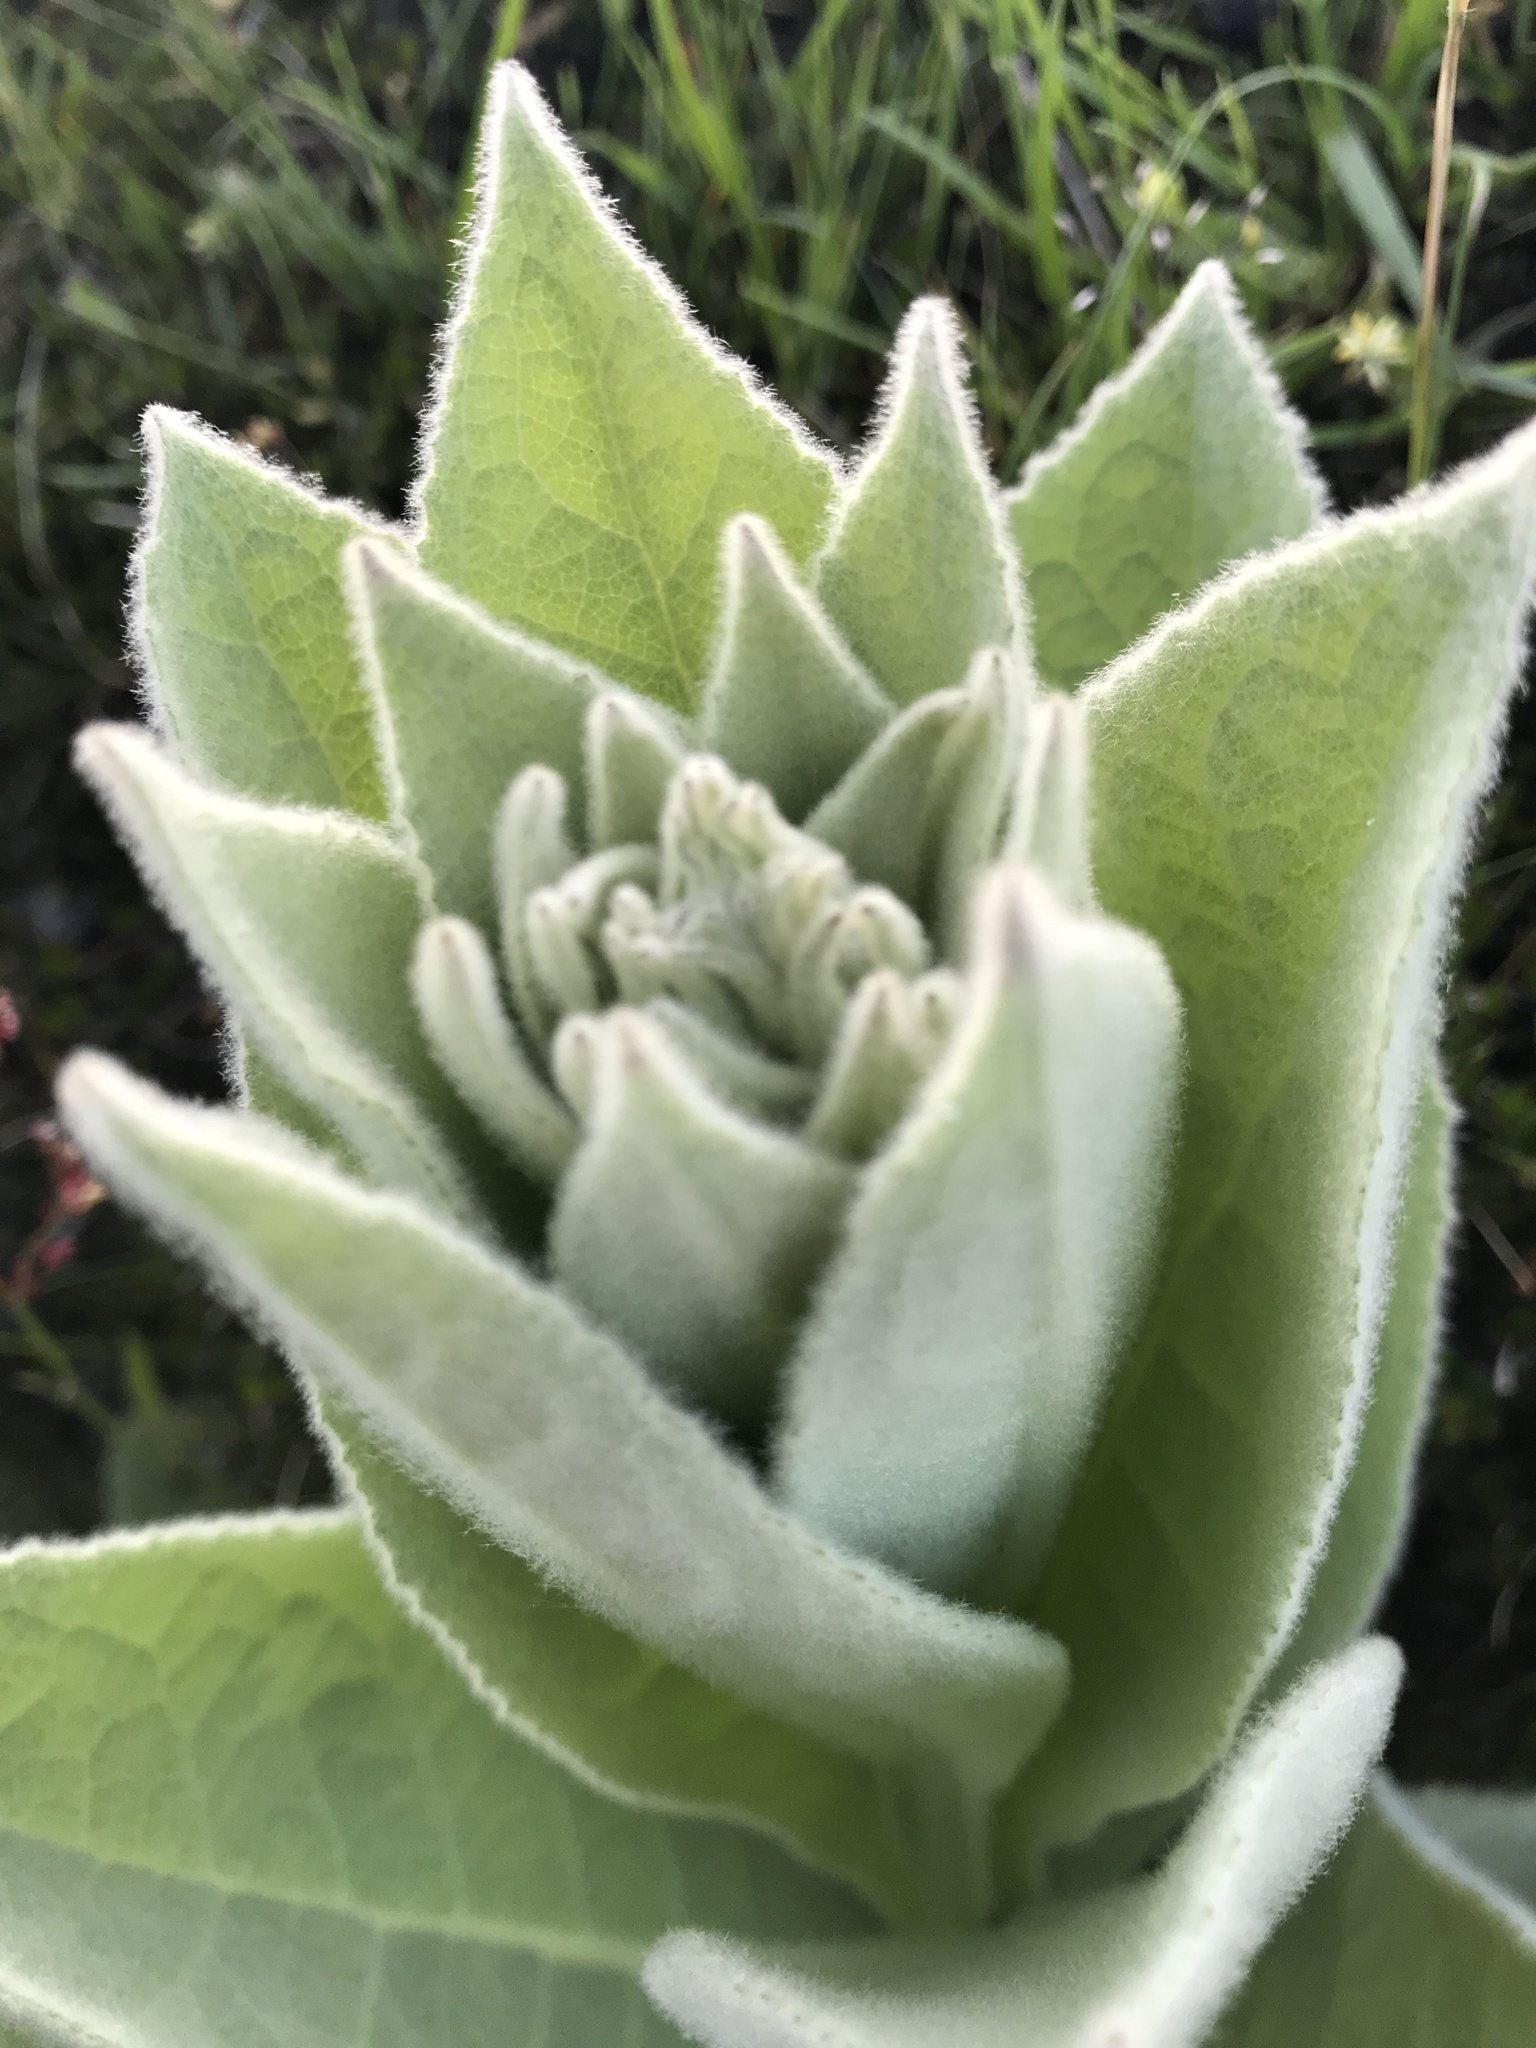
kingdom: Plantae
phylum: Tracheophyta
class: Magnoliopsida
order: Lamiales
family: Scrophulariaceae
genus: Verbascum
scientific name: Verbascum thapsus
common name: Common mullein
